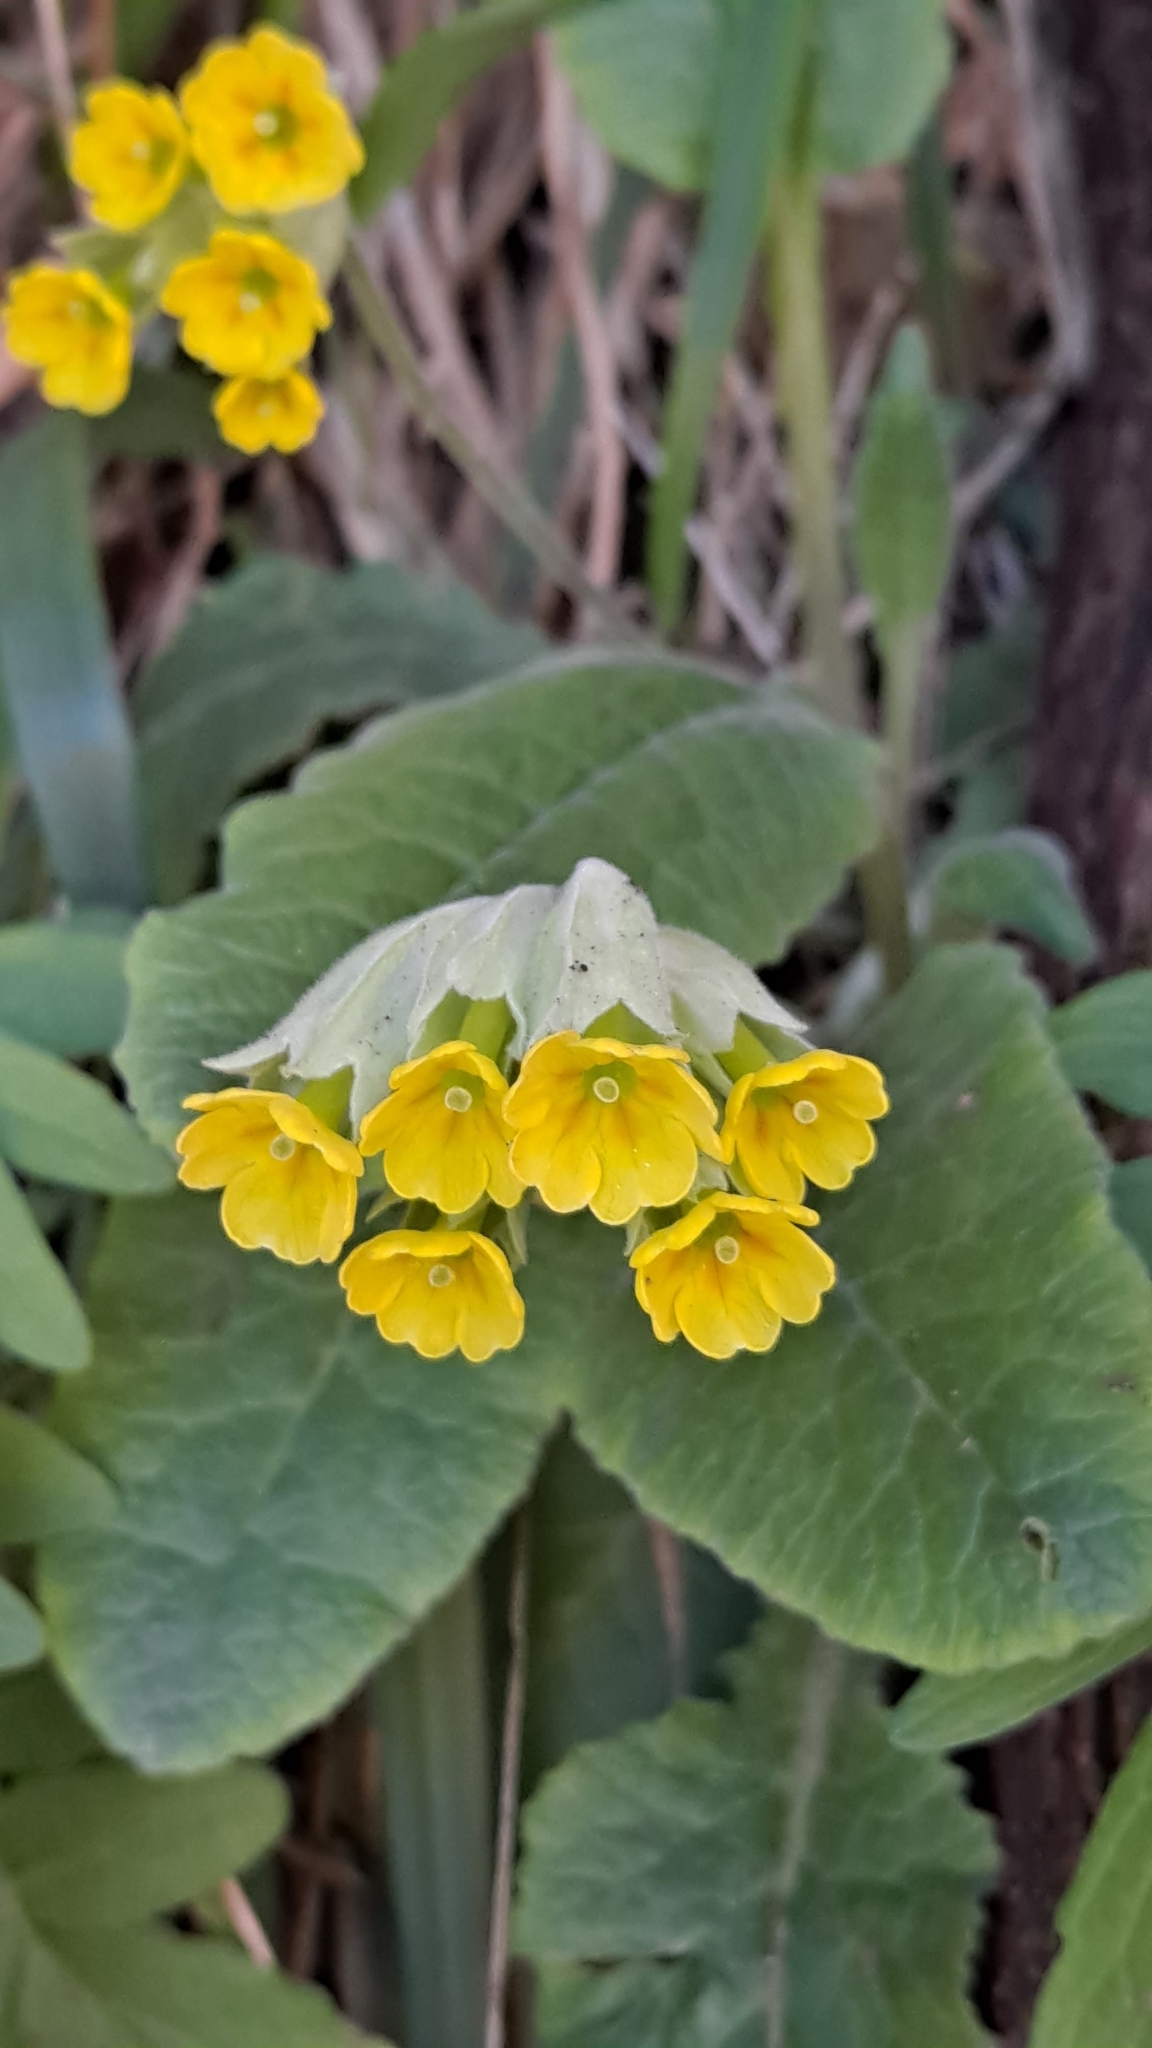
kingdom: Plantae
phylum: Tracheophyta
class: Magnoliopsida
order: Ericales
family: Primulaceae
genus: Primula
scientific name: Primula veris
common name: Cowslip
